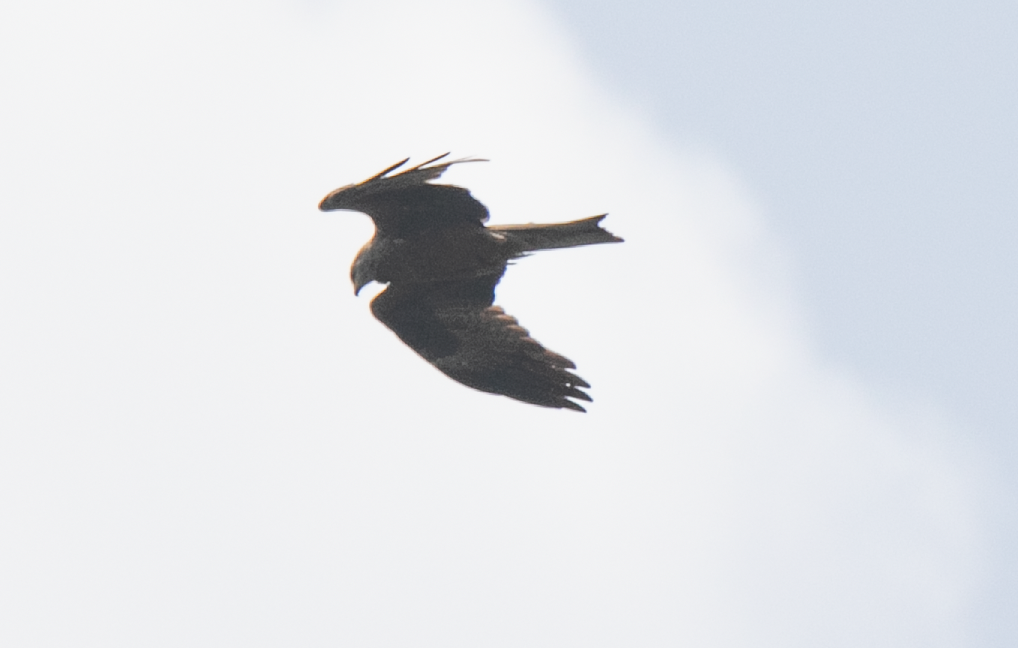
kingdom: Animalia
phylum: Chordata
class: Aves
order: Accipitriformes
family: Accipitridae
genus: Milvus
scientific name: Milvus migrans
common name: Black kite
